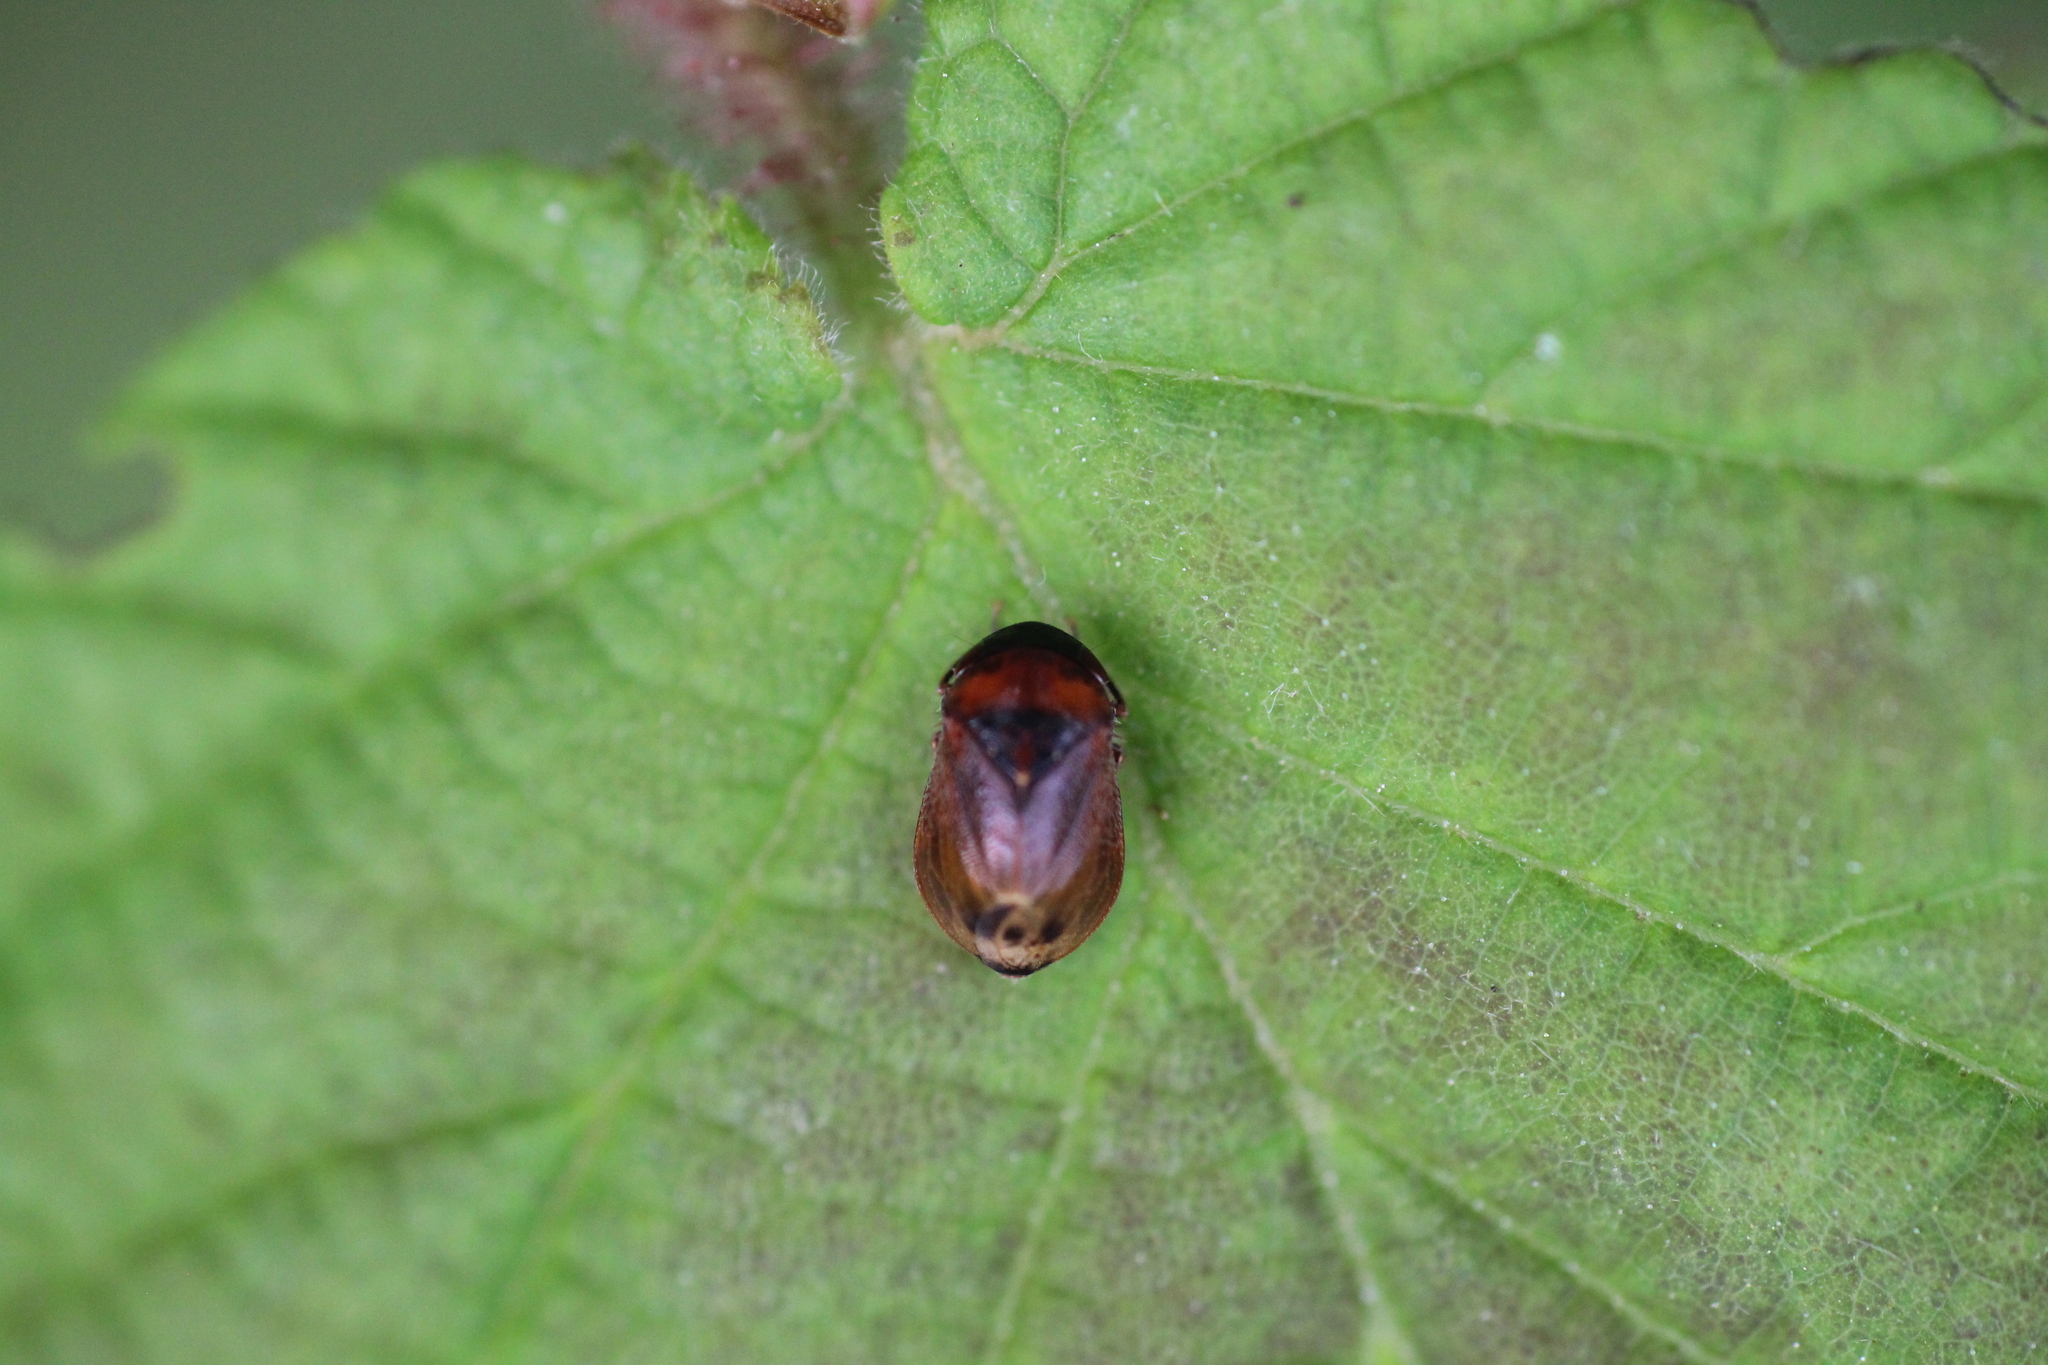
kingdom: Animalia
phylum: Arthropoda
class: Insecta
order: Hemiptera
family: Cicadellidae
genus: Penthimia
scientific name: Penthimia nigra
